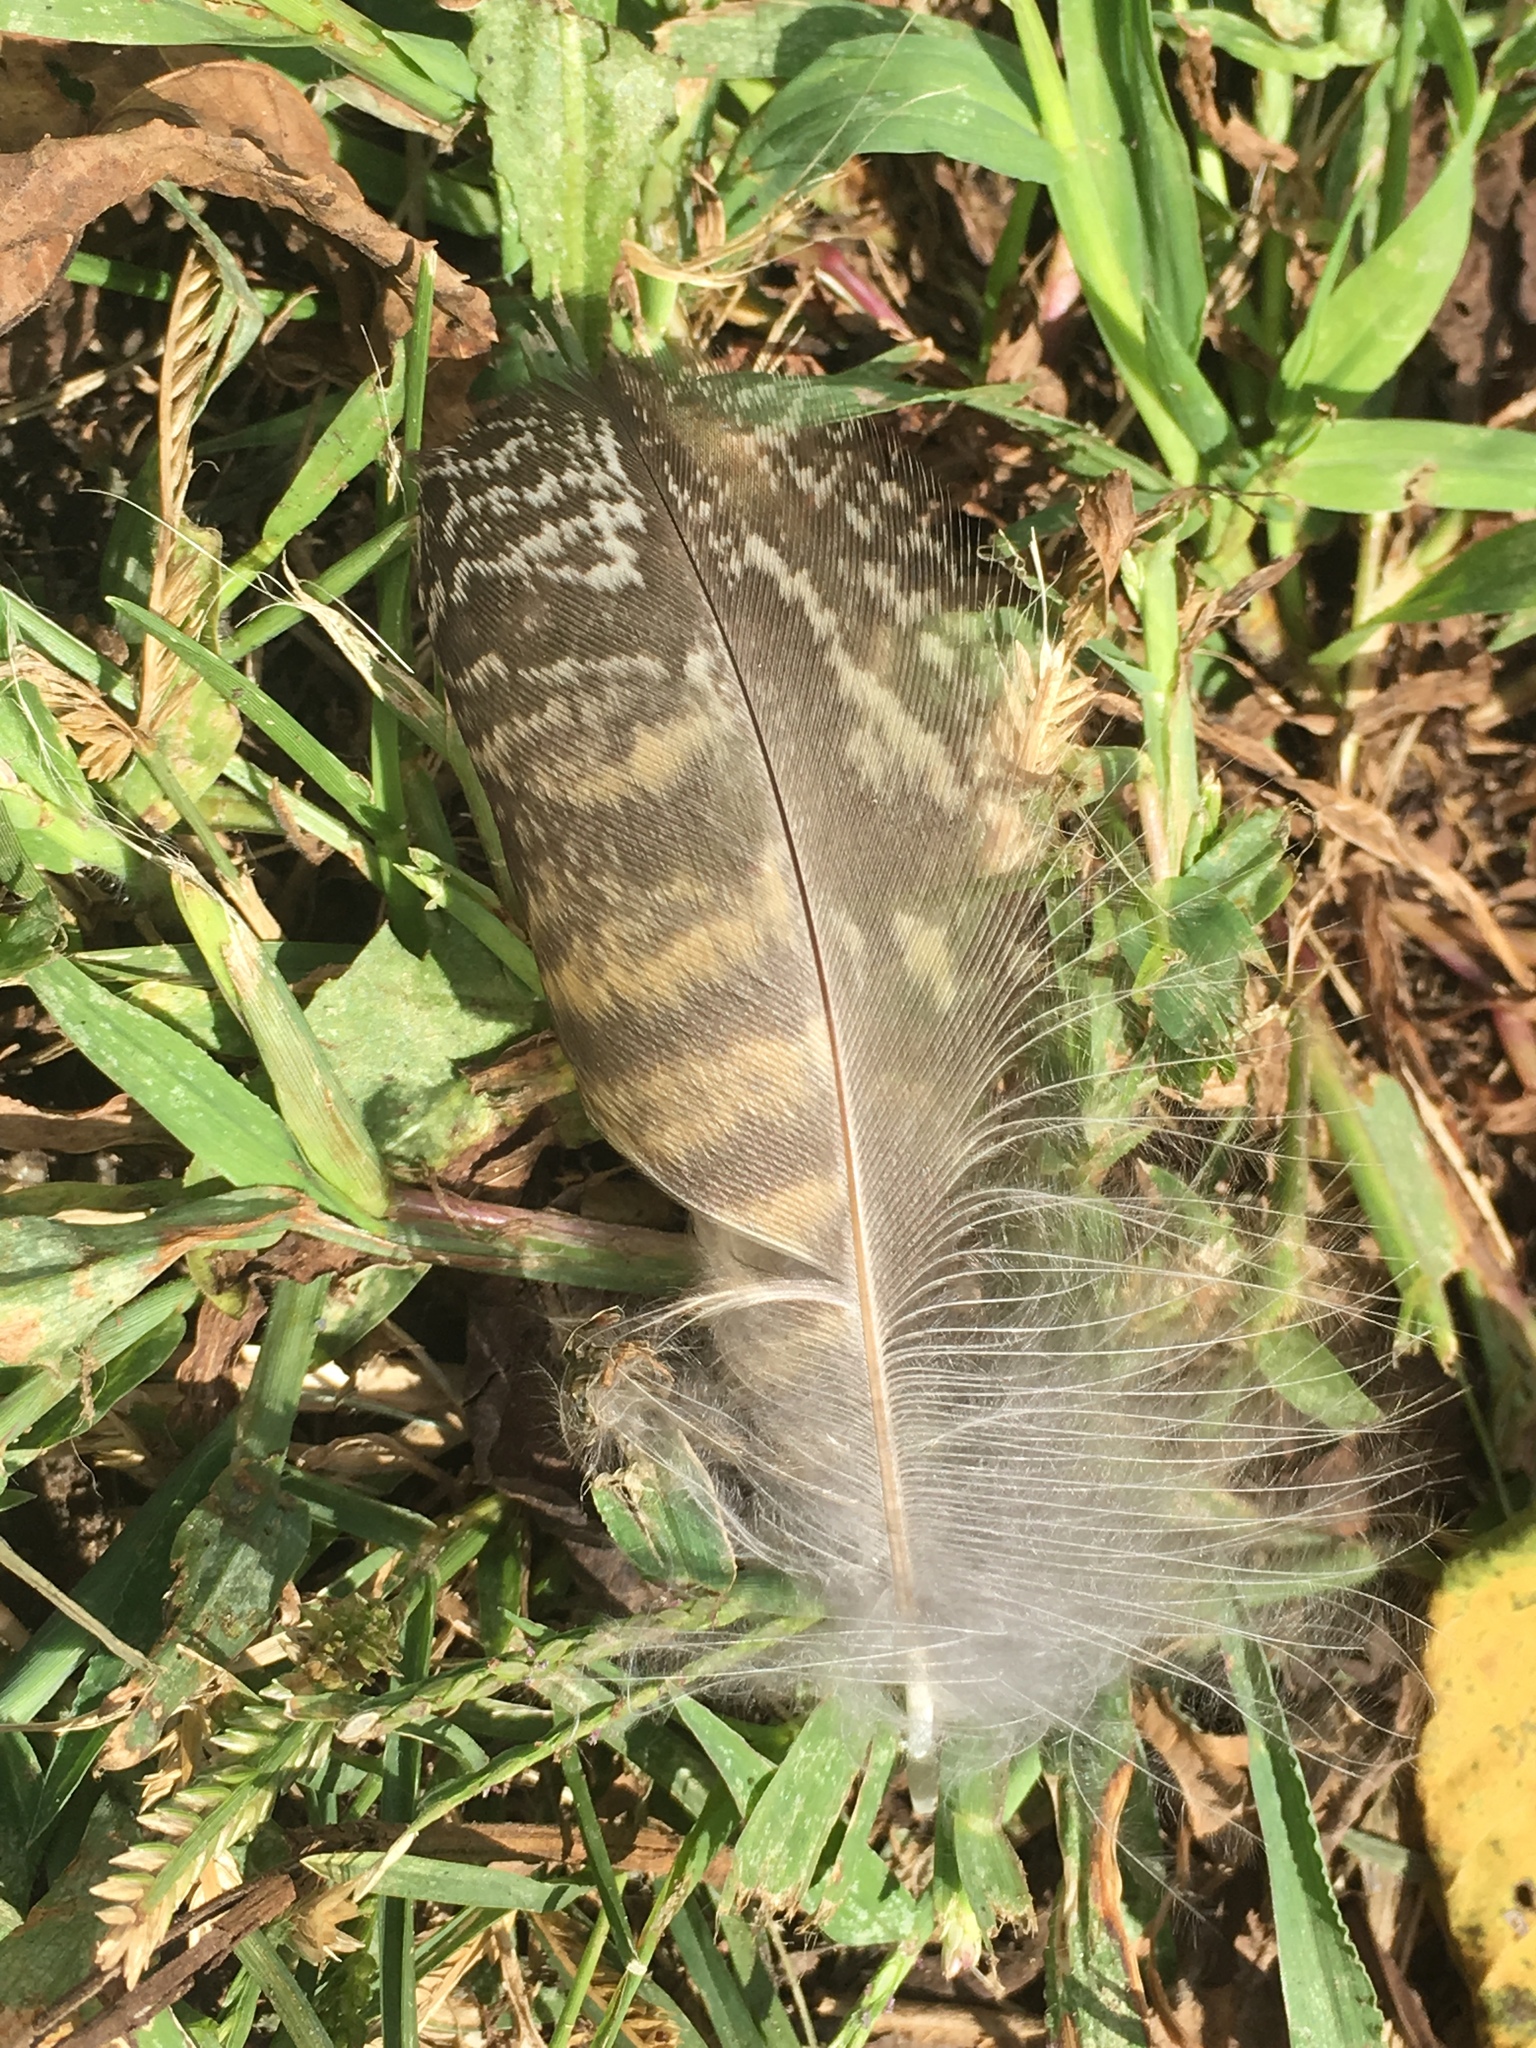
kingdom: Animalia
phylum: Chordata
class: Aves
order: Strigiformes
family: Strigidae
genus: Bubo
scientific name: Bubo virginianus
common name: Great horned owl
